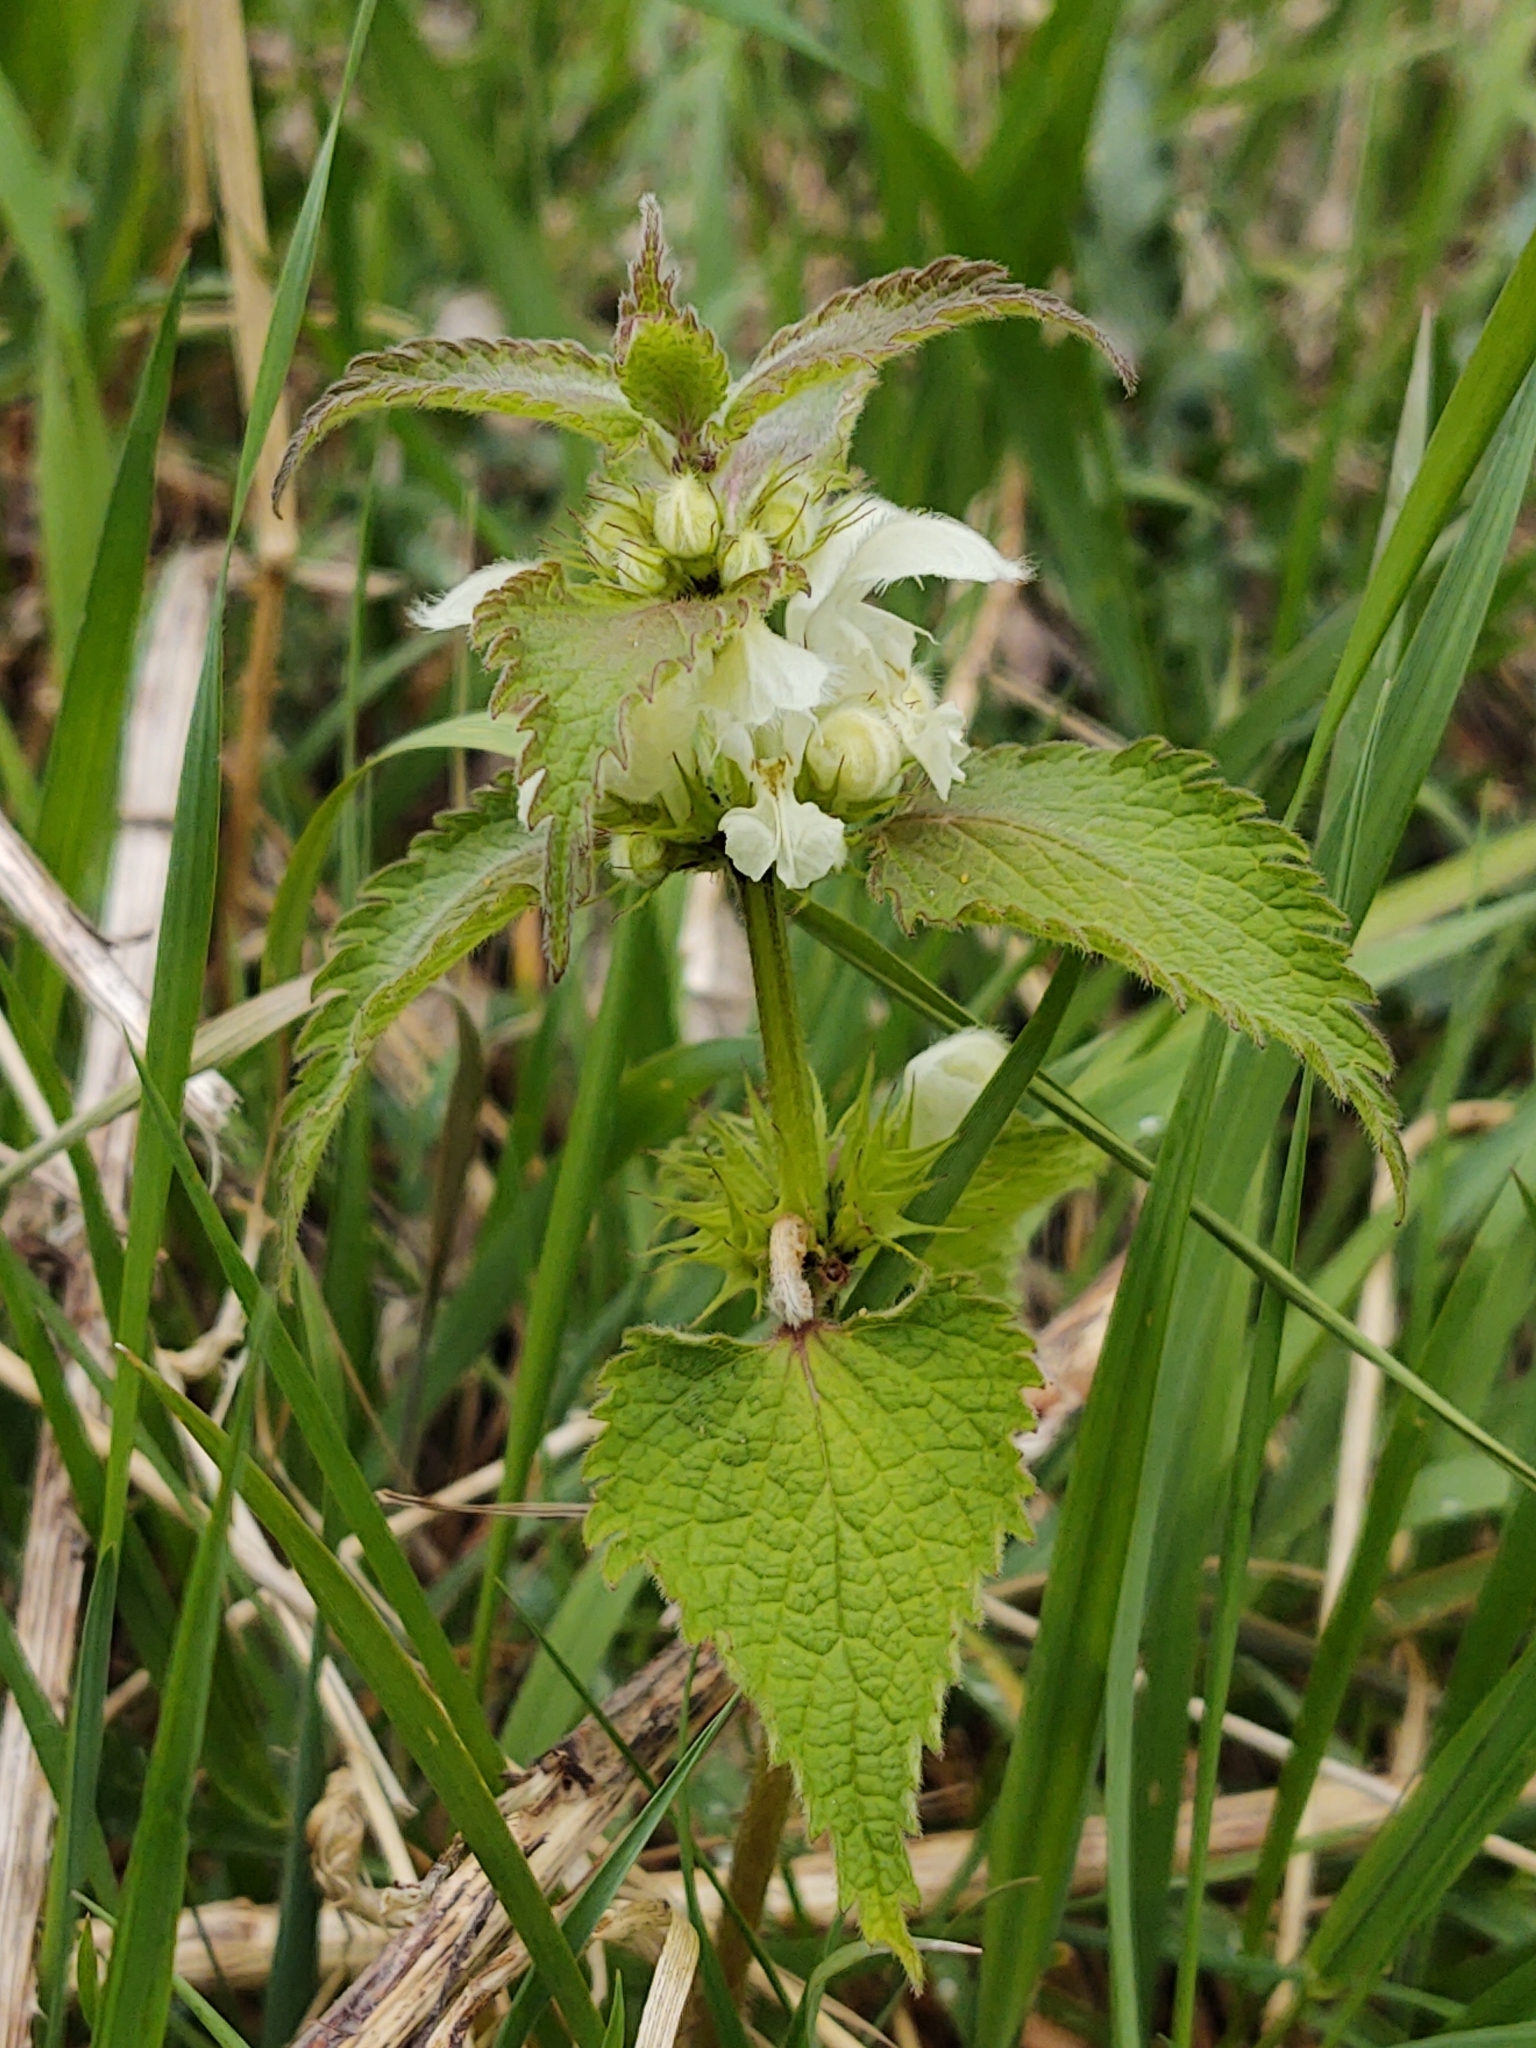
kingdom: Plantae
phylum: Tracheophyta
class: Magnoliopsida
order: Lamiales
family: Lamiaceae
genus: Lamium
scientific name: Lamium album
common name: White dead-nettle
